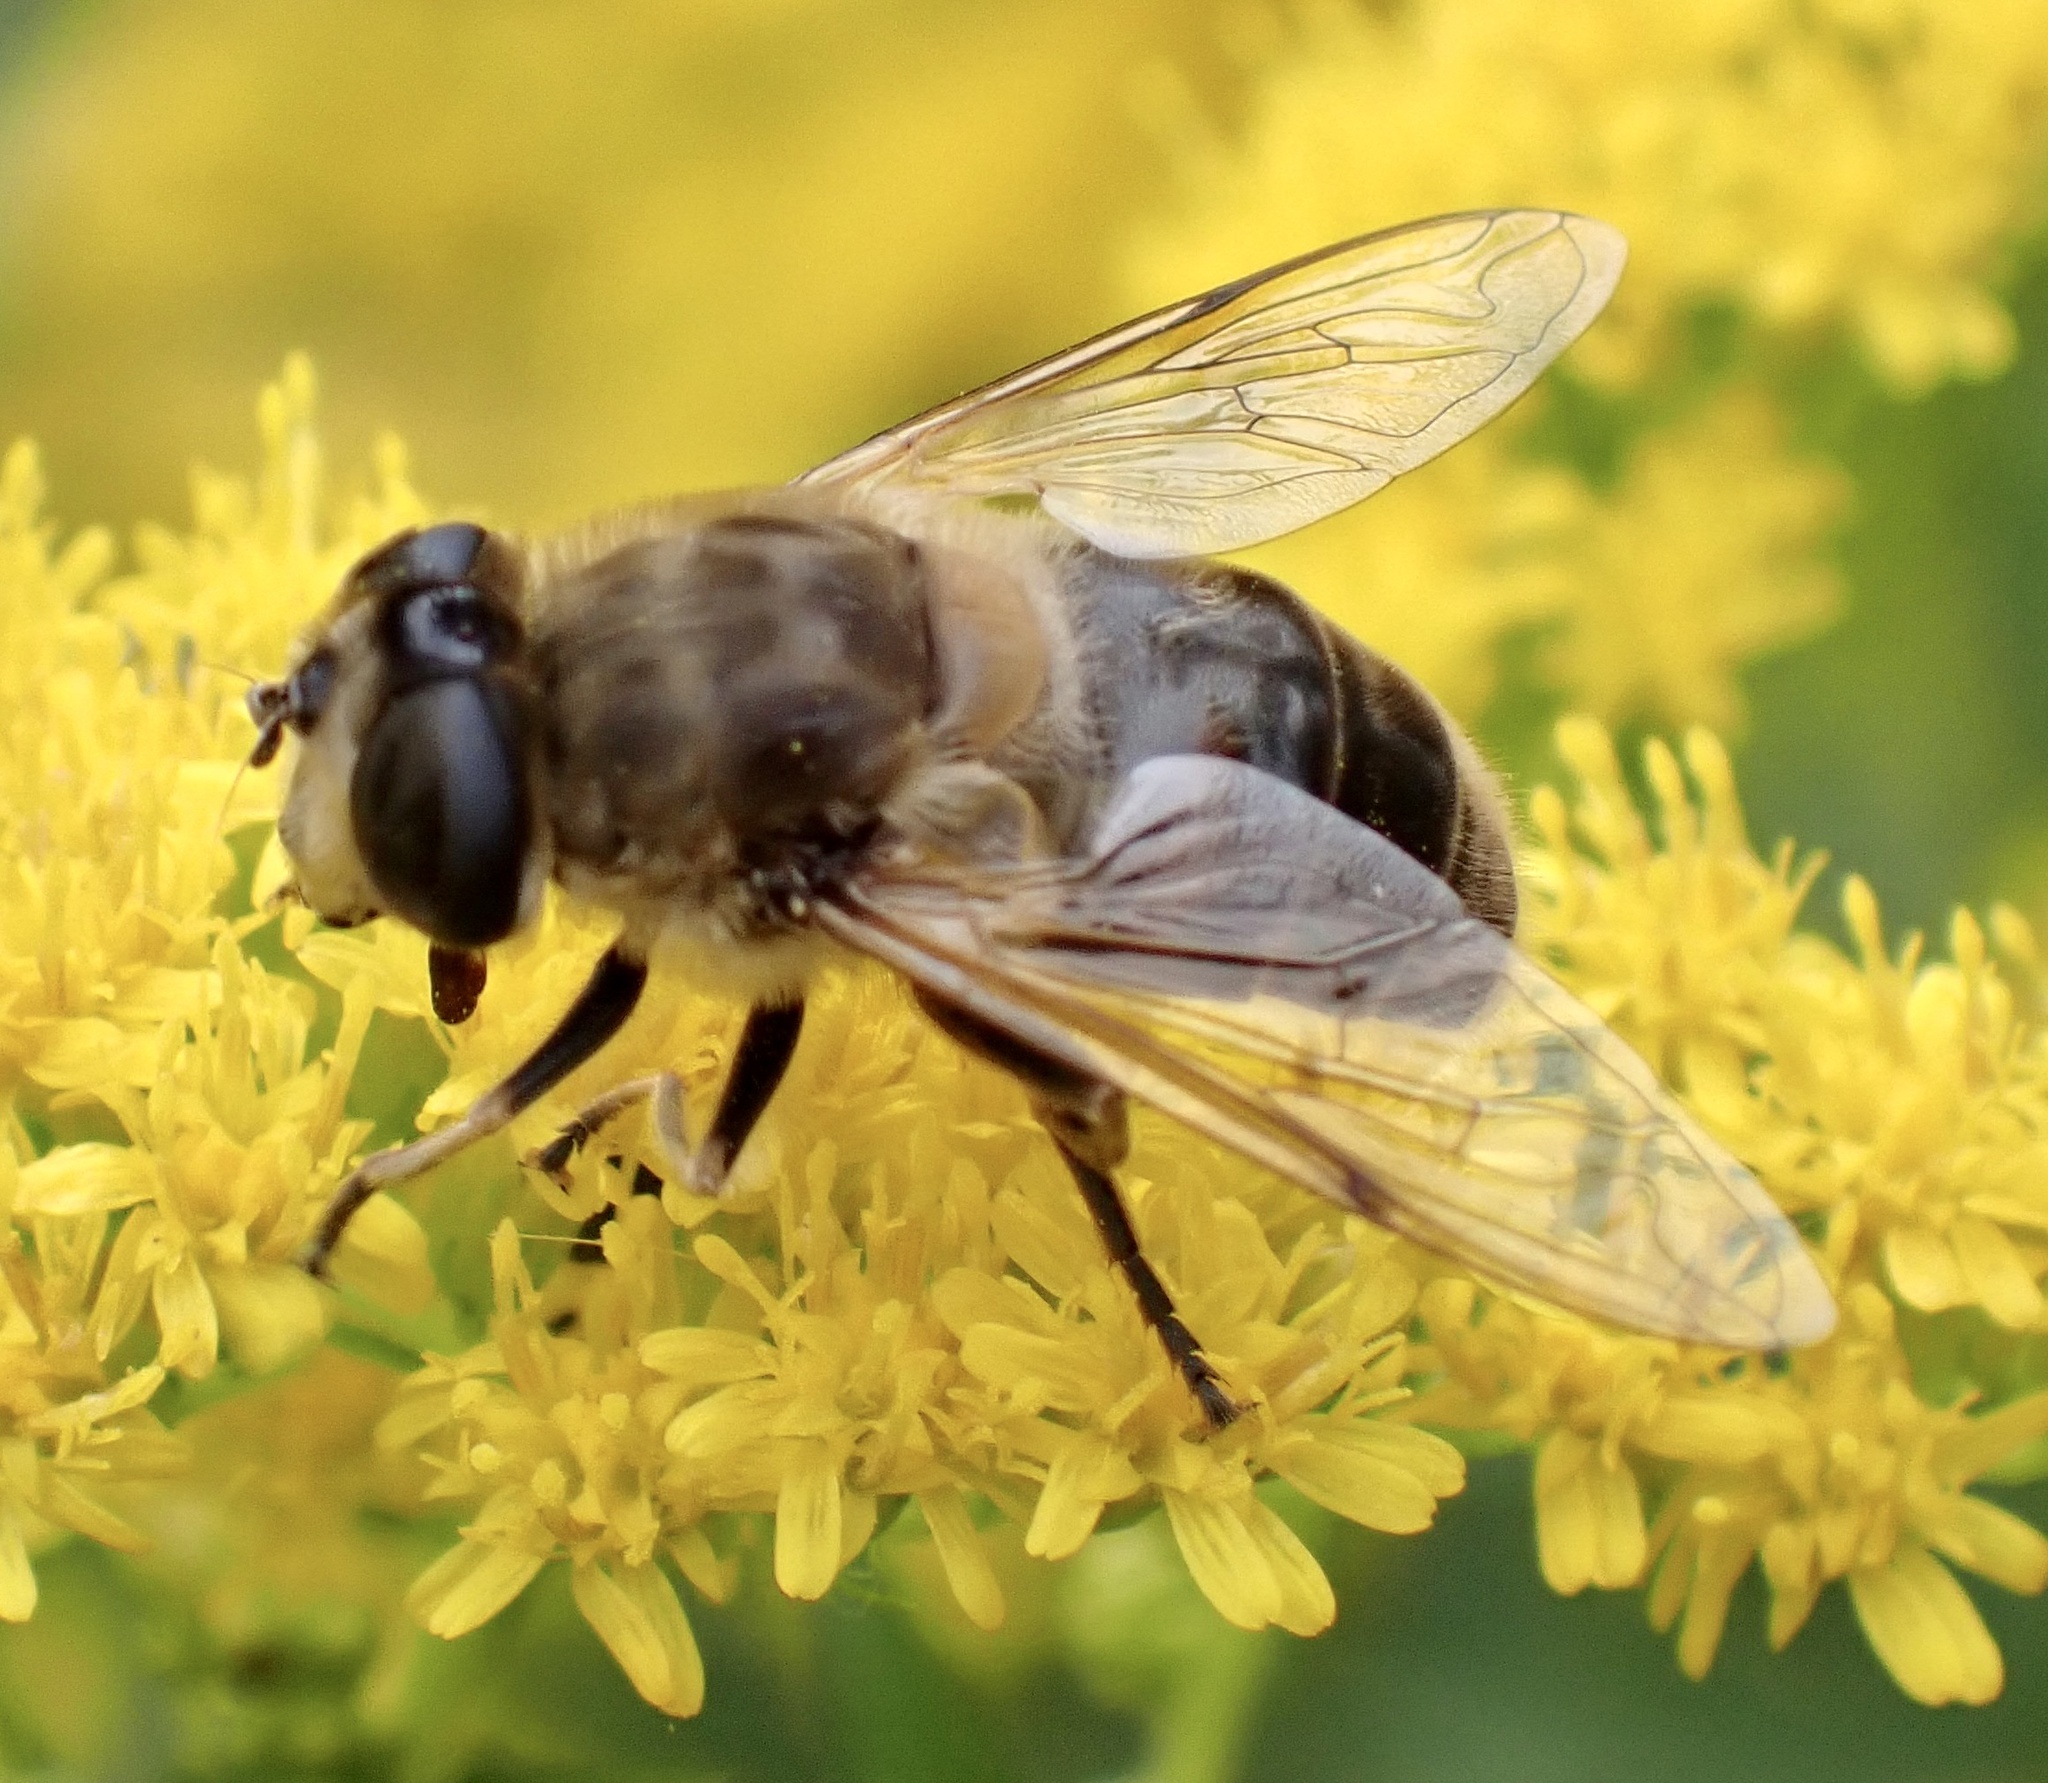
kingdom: Animalia
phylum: Arthropoda
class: Insecta
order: Diptera
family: Syrphidae
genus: Eristalis
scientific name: Eristalis tenax
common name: Drone fly
